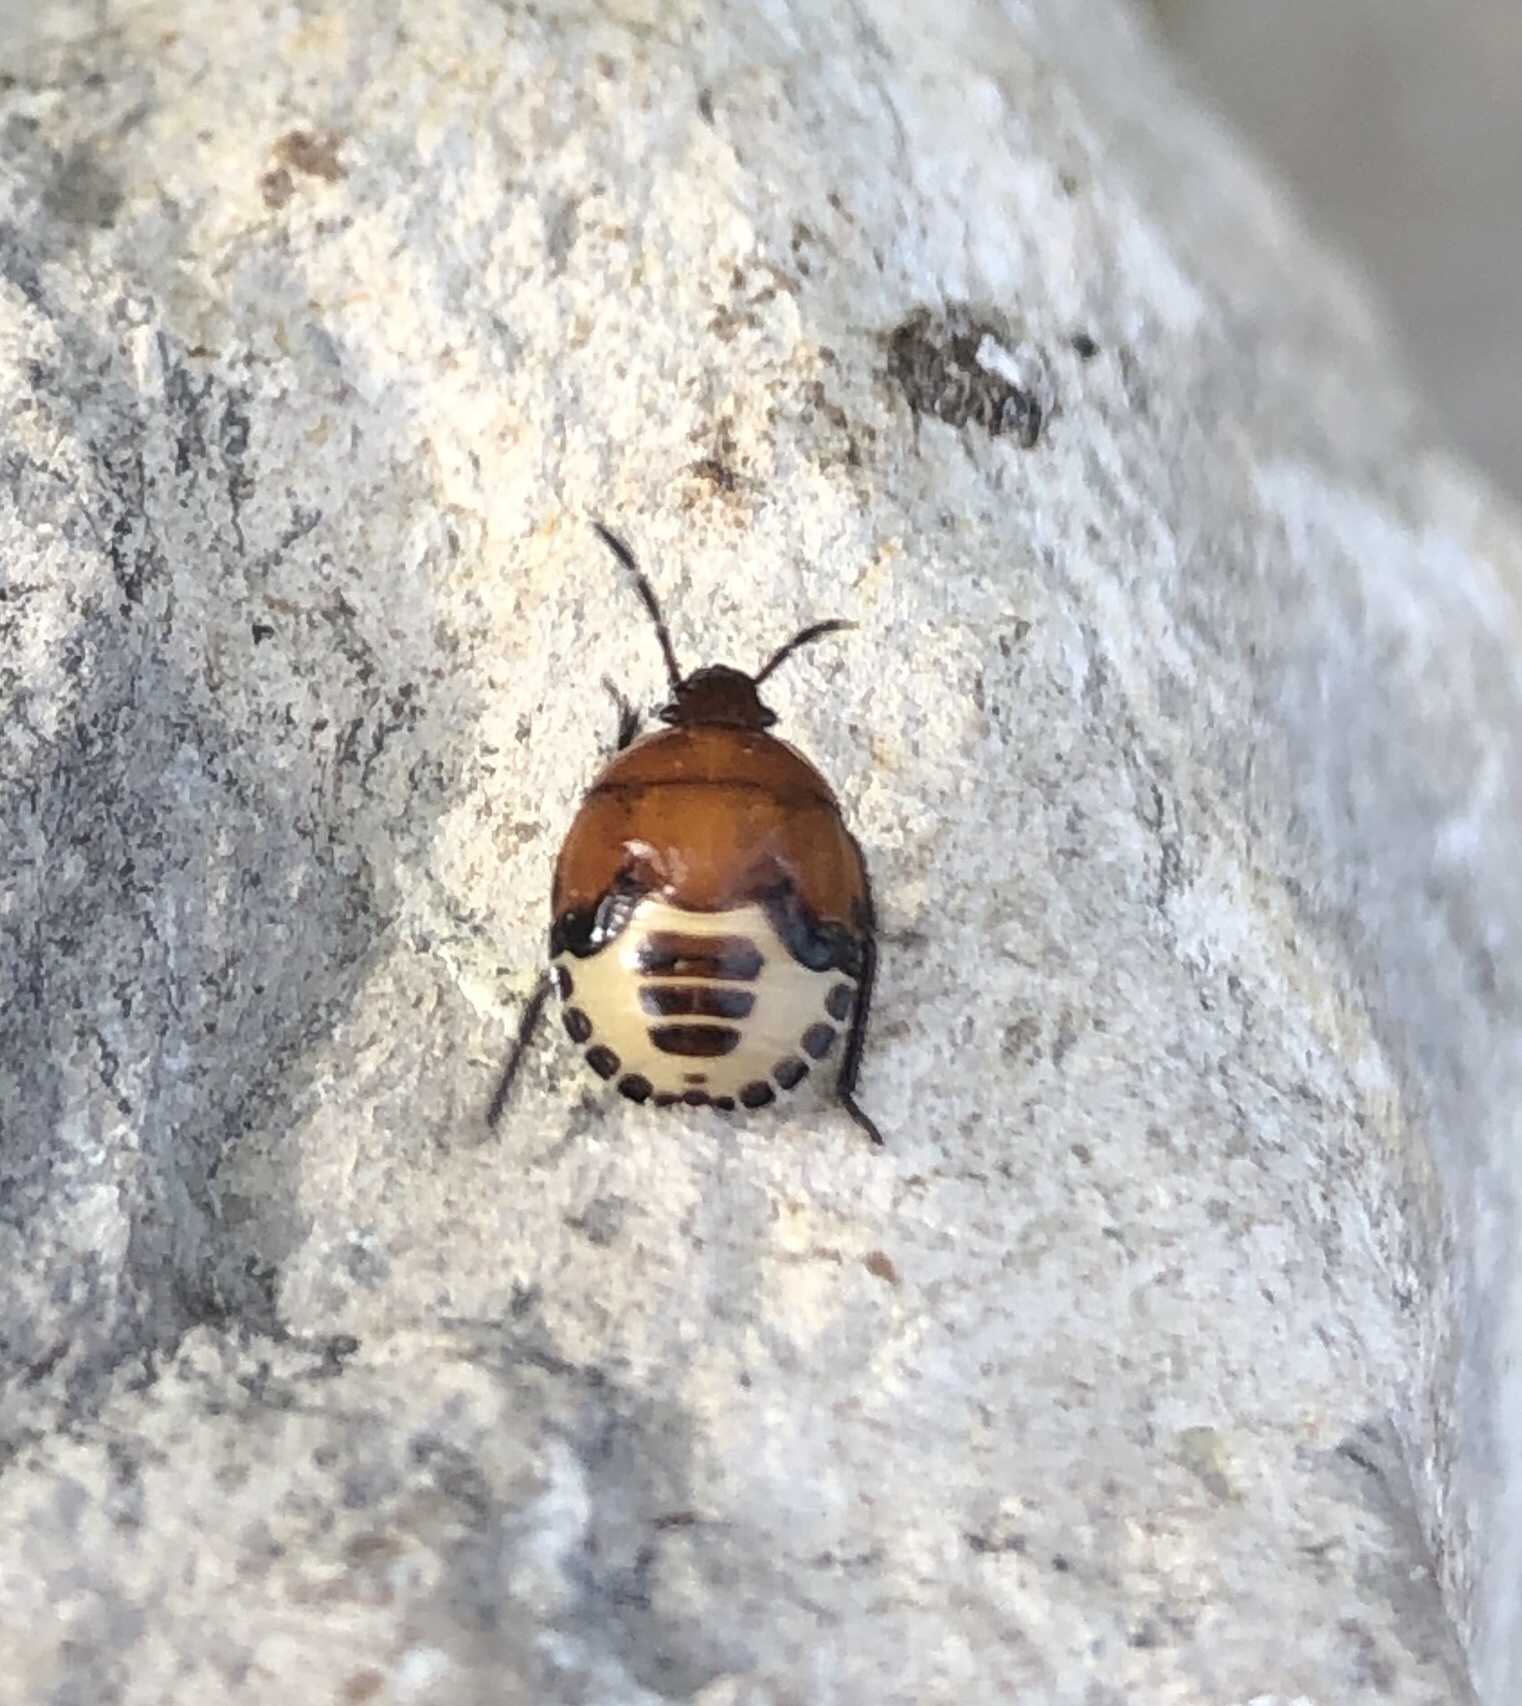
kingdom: Animalia
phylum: Arthropoda
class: Insecta
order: Hemiptera
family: Cydnidae
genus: Tritomegas
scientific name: Tritomegas sexmaculatus
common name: Rambur's pied shieldbug
